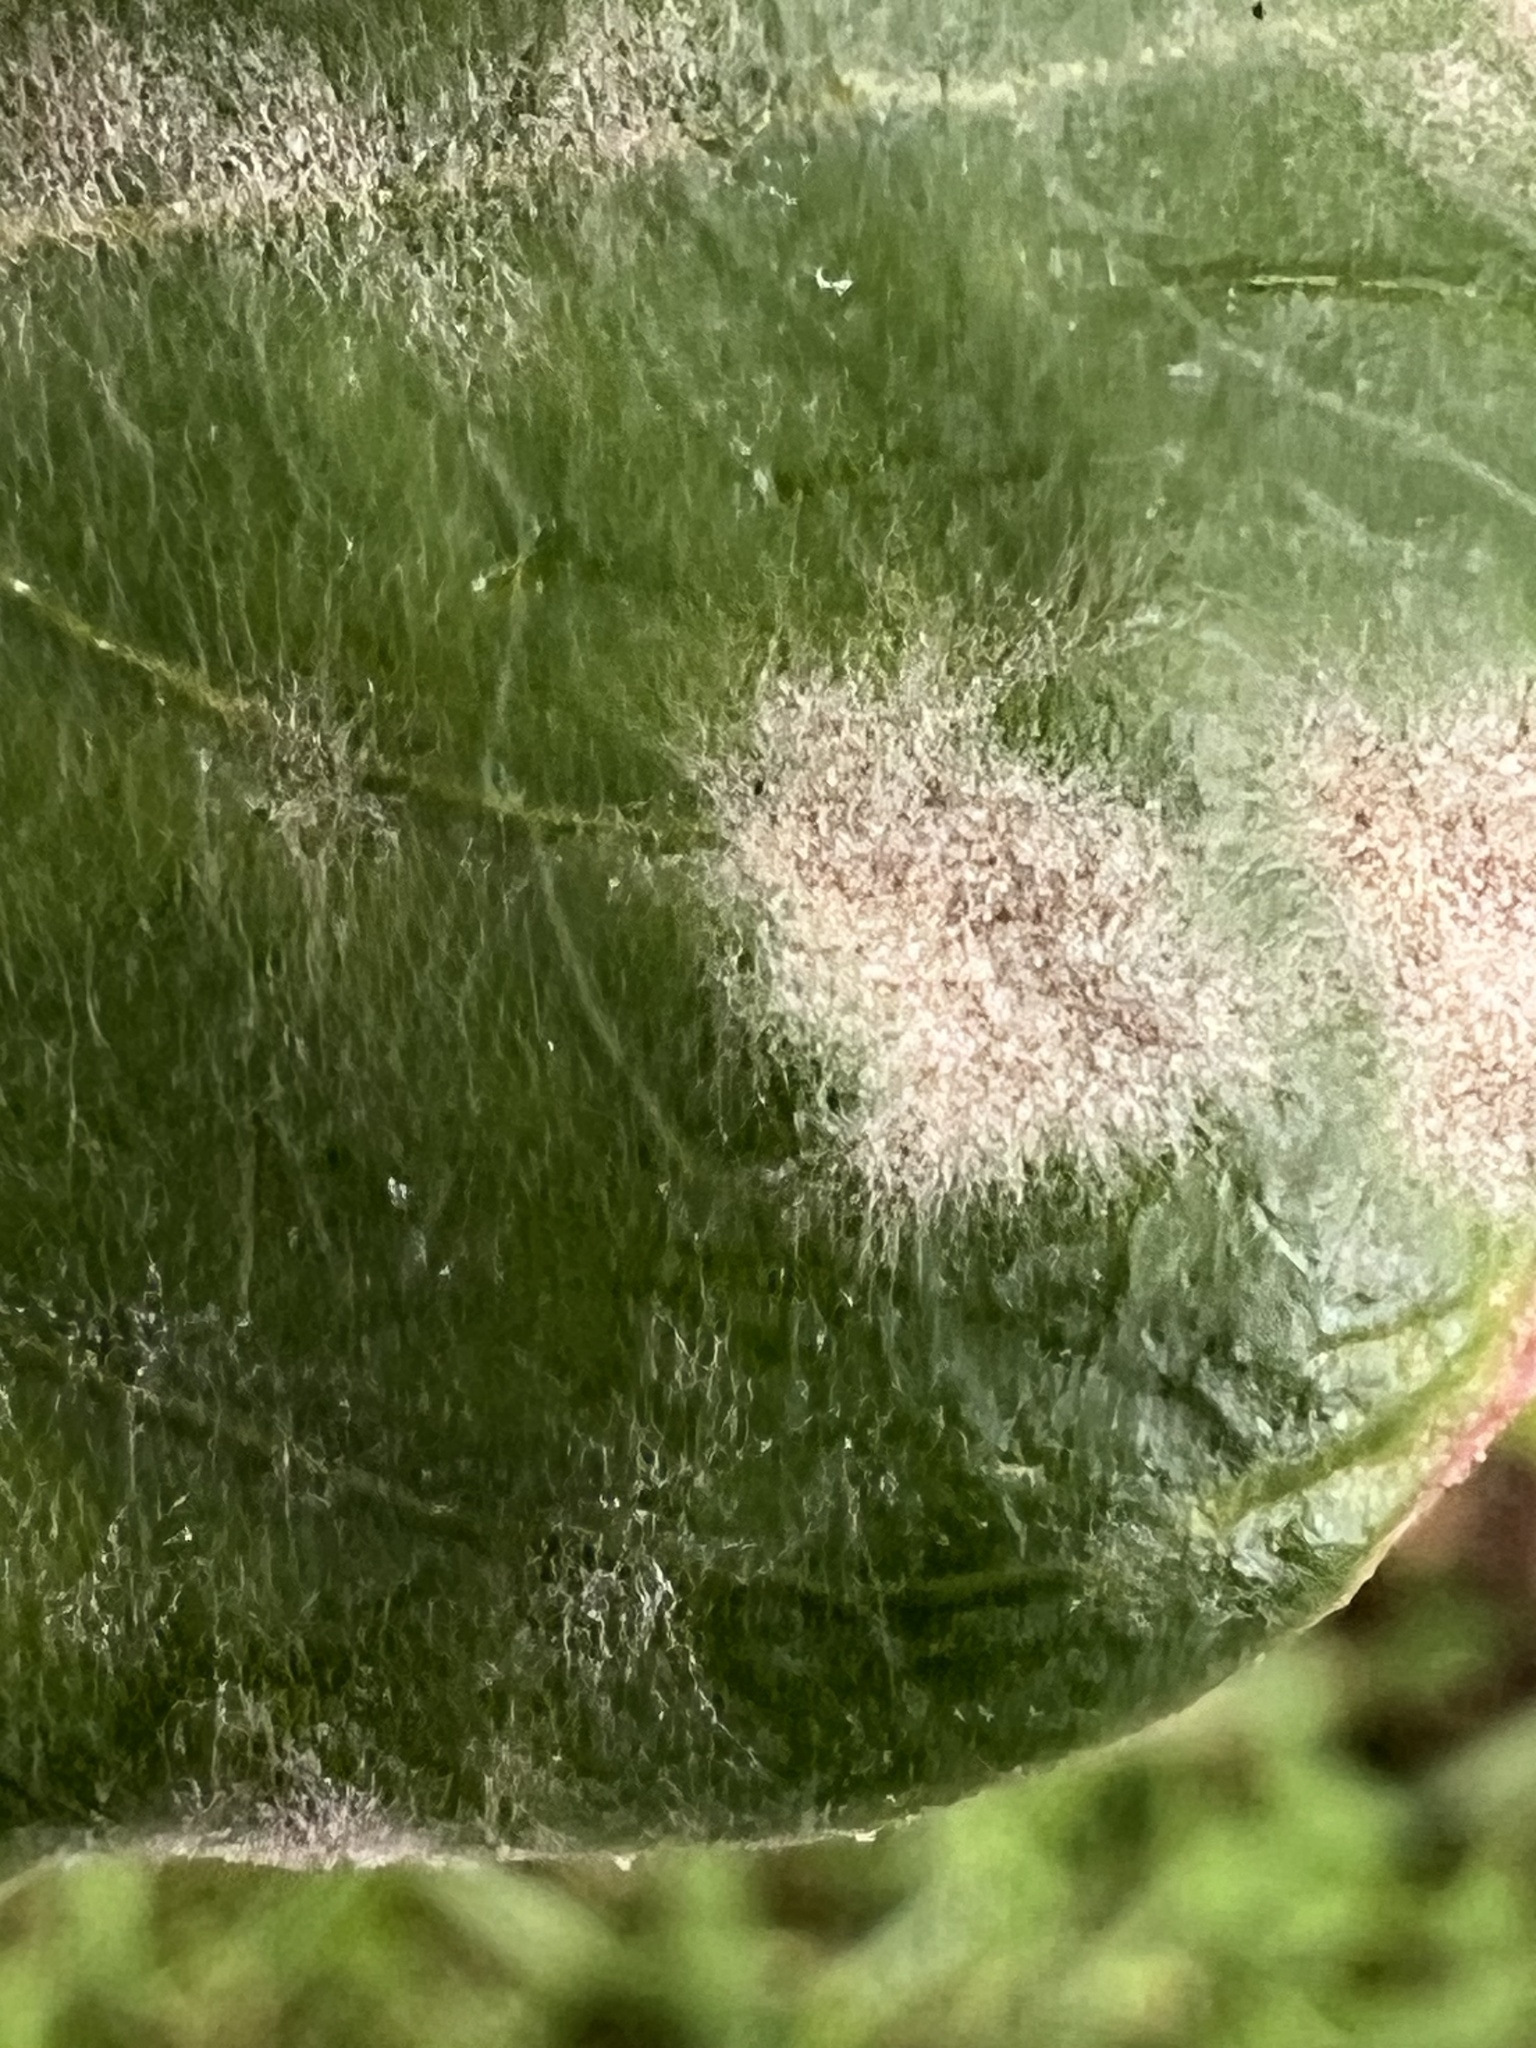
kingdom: Fungi
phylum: Ascomycota
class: Leotiomycetes
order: Helotiales
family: Erysiphaceae
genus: Erysiphe
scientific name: Erysiphe australiana
